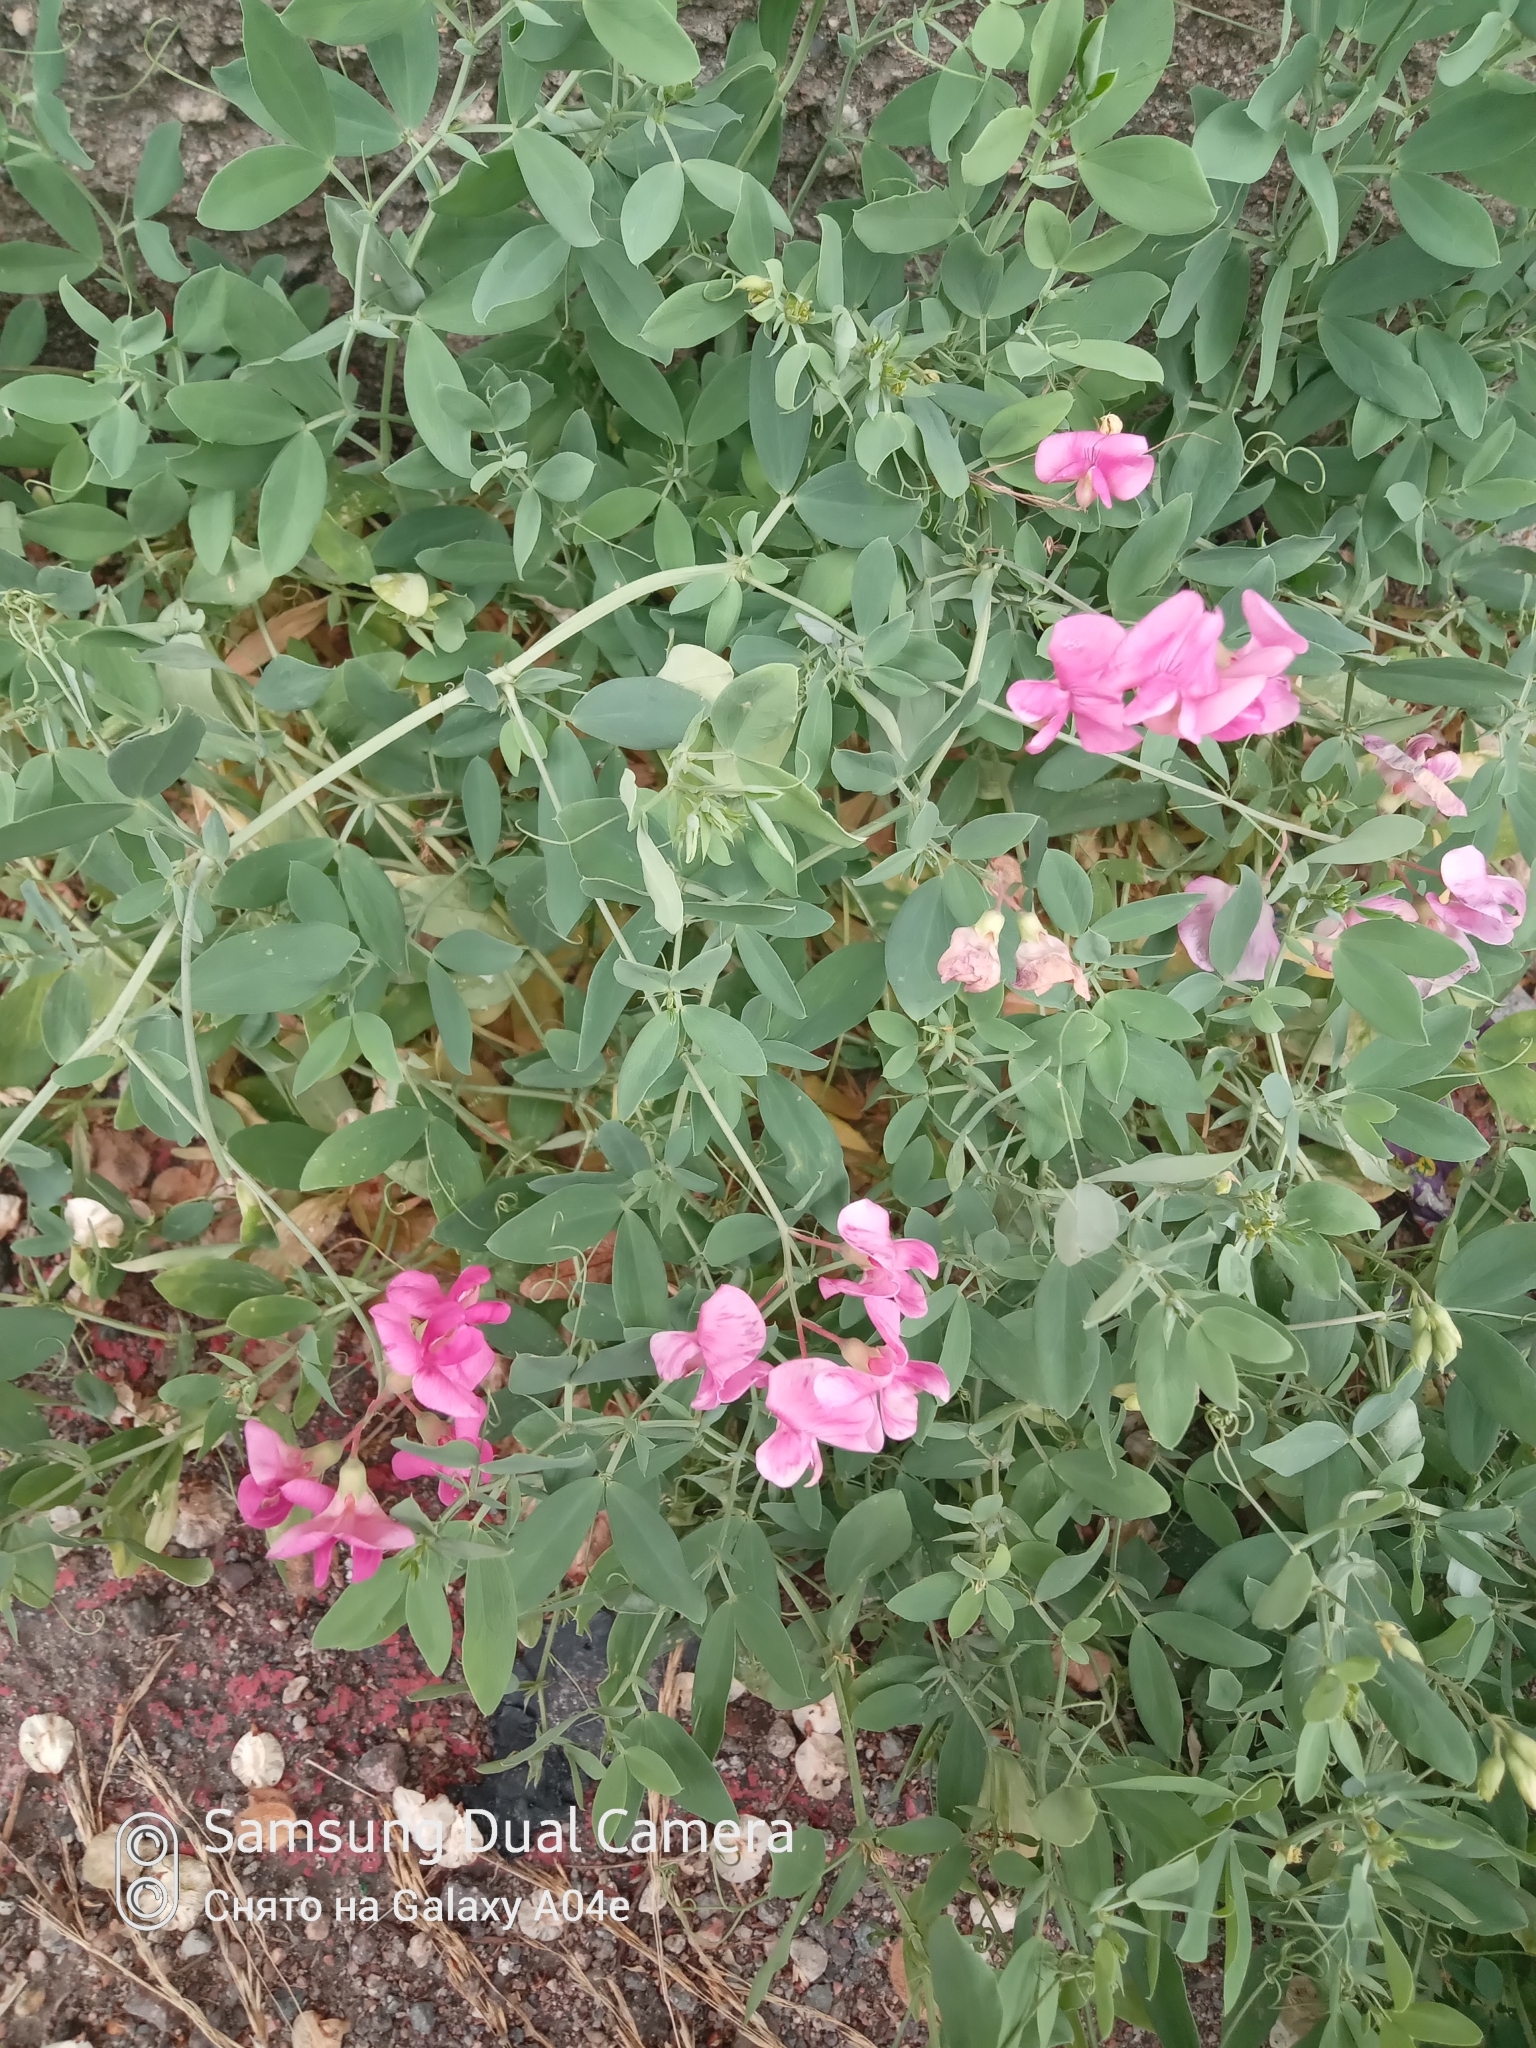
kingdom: Plantae
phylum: Tracheophyta
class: Magnoliopsida
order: Fabales
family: Fabaceae
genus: Lathyrus
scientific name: Lathyrus tuberosus
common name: Tuberous pea
